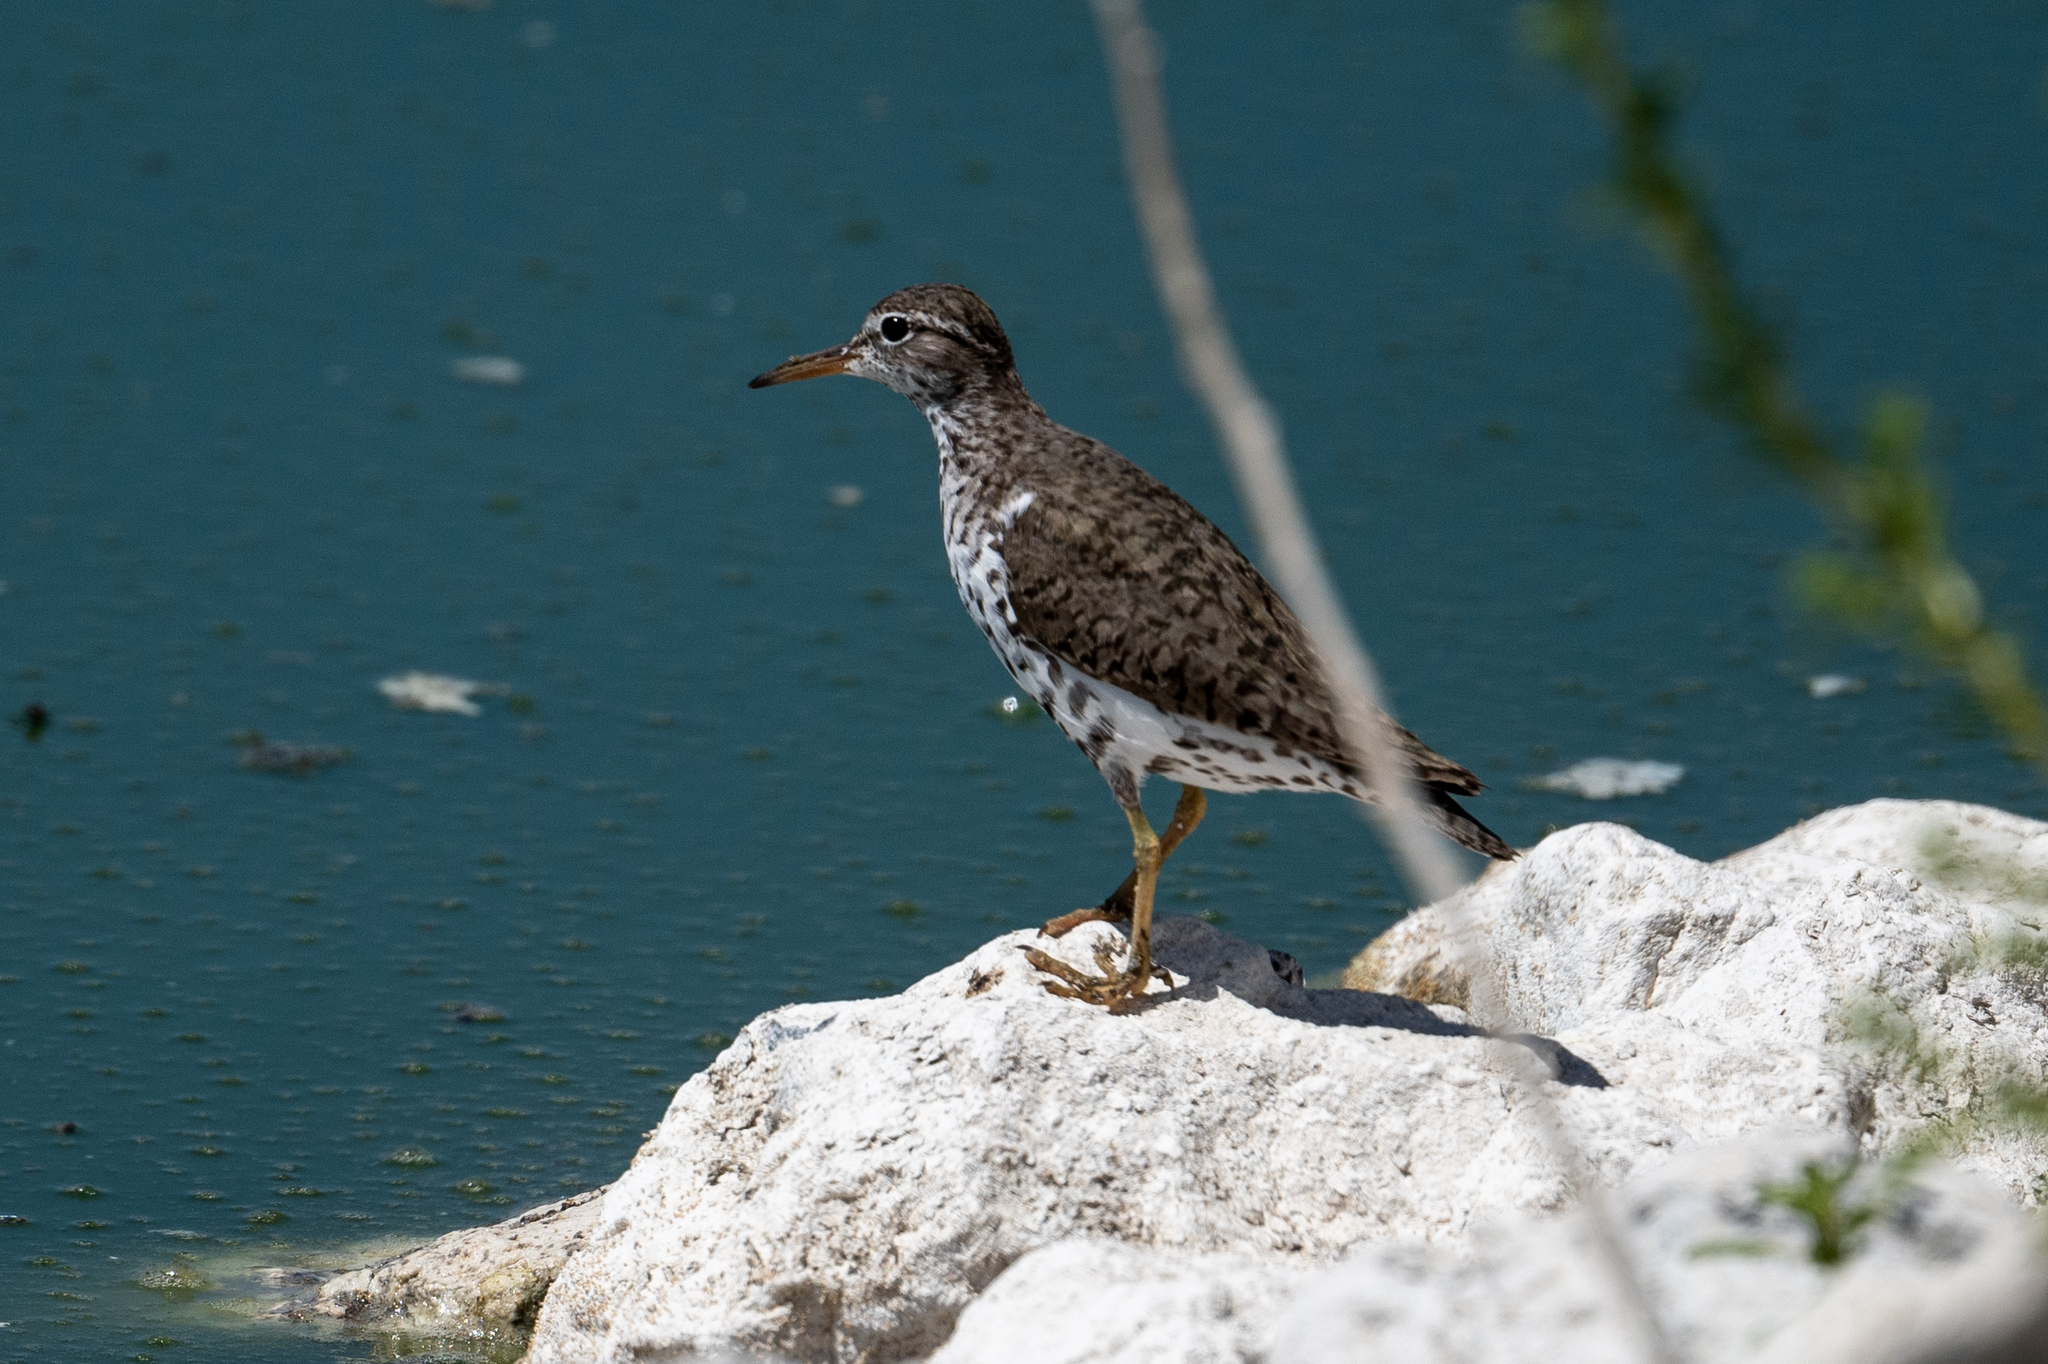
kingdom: Animalia
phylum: Chordata
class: Aves
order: Charadriiformes
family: Scolopacidae
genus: Actitis
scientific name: Actitis macularius
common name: Spotted sandpiper
